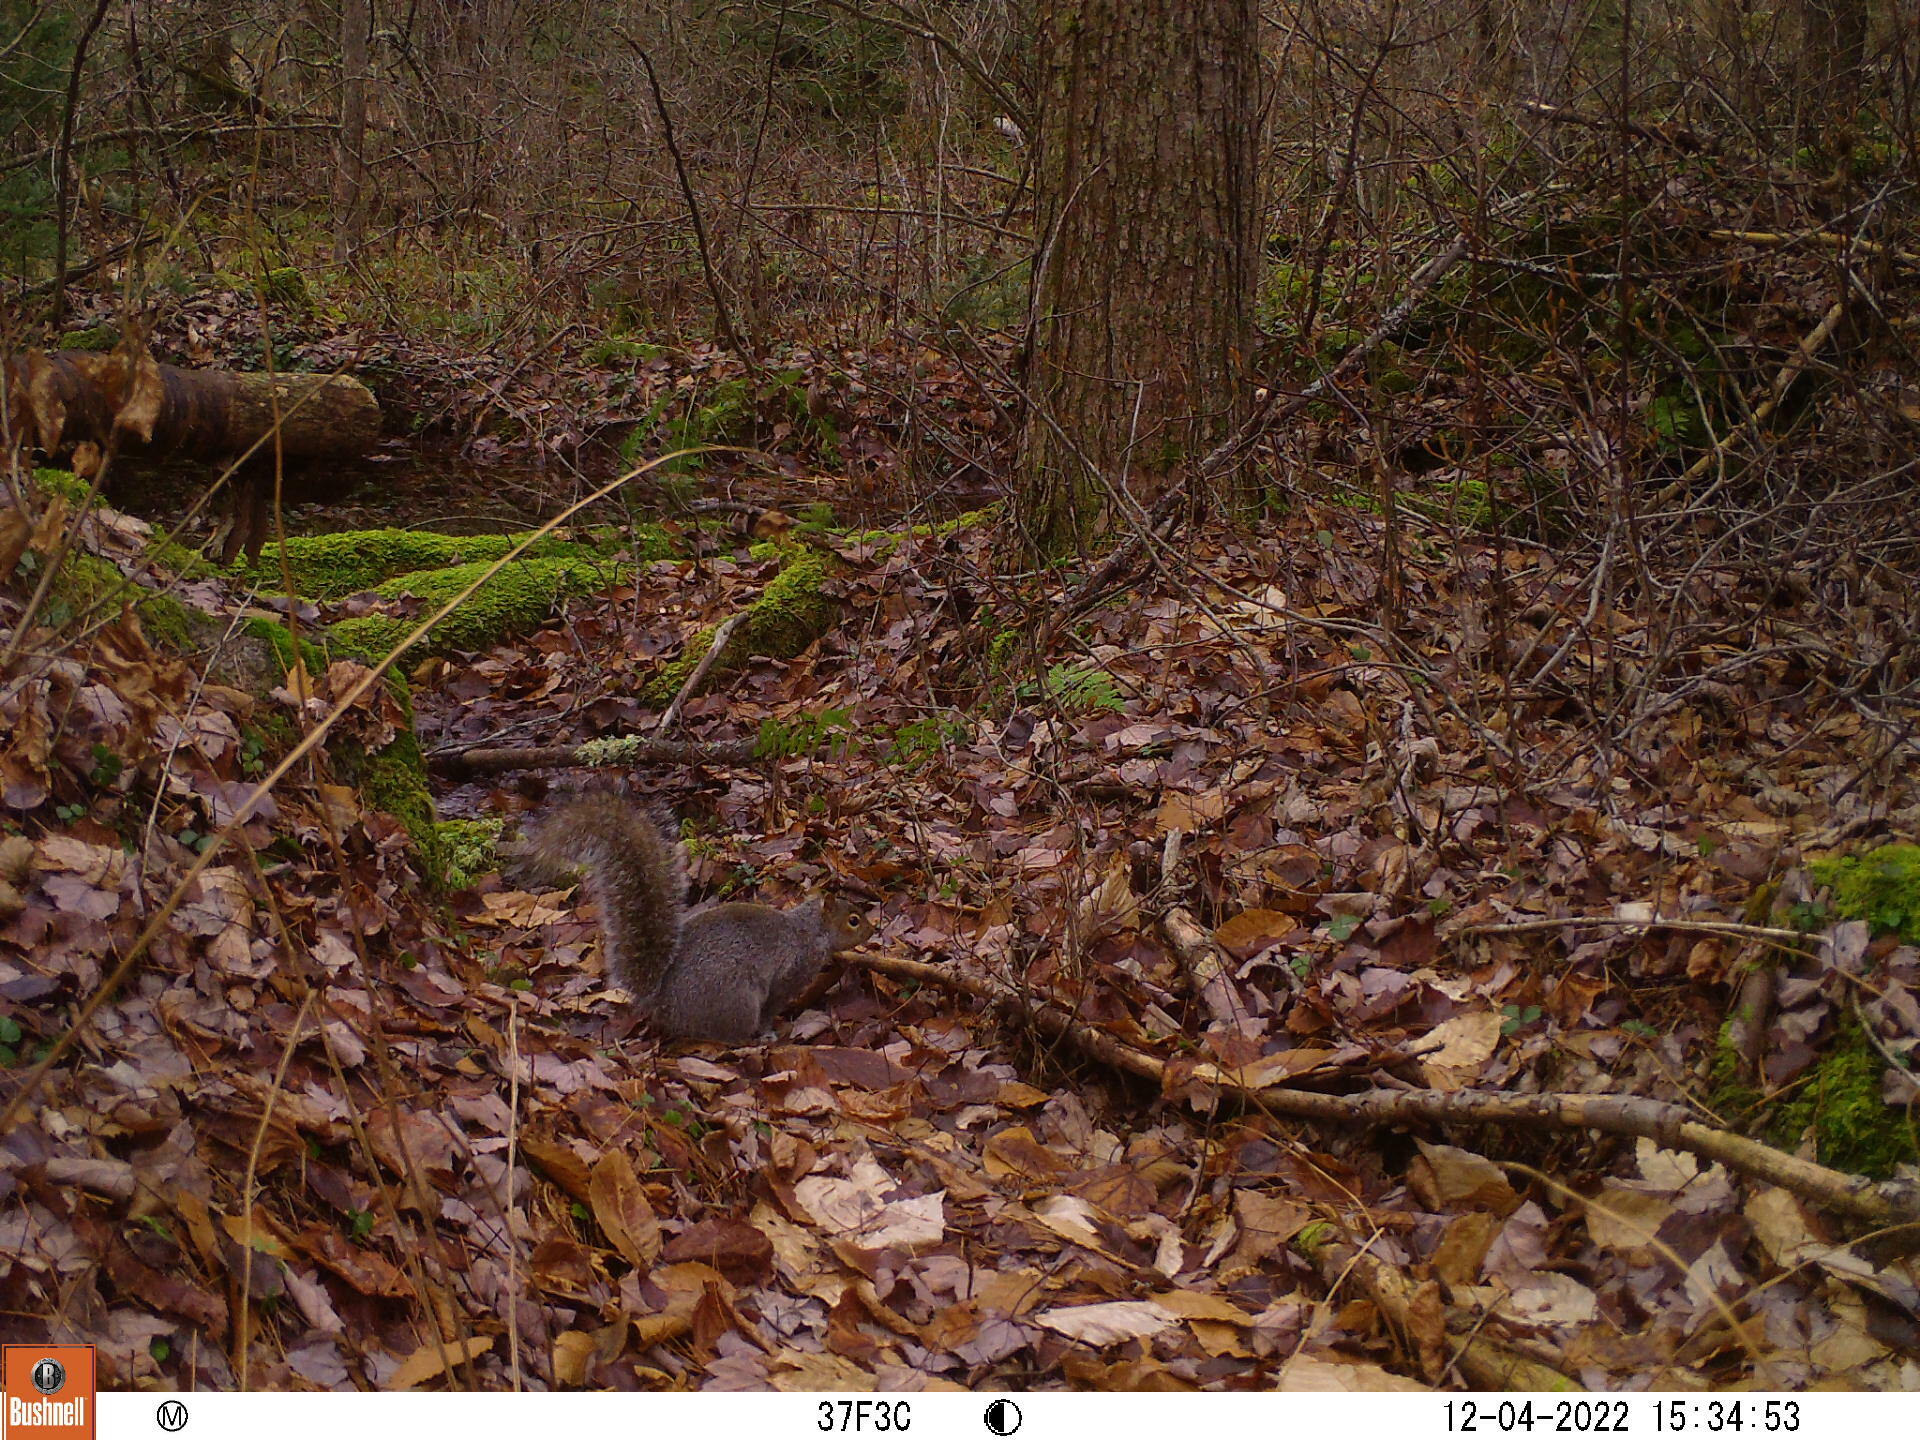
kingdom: Animalia
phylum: Chordata
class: Mammalia
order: Rodentia
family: Sciuridae
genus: Sciurus
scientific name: Sciurus carolinensis
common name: Eastern gray squirrel
